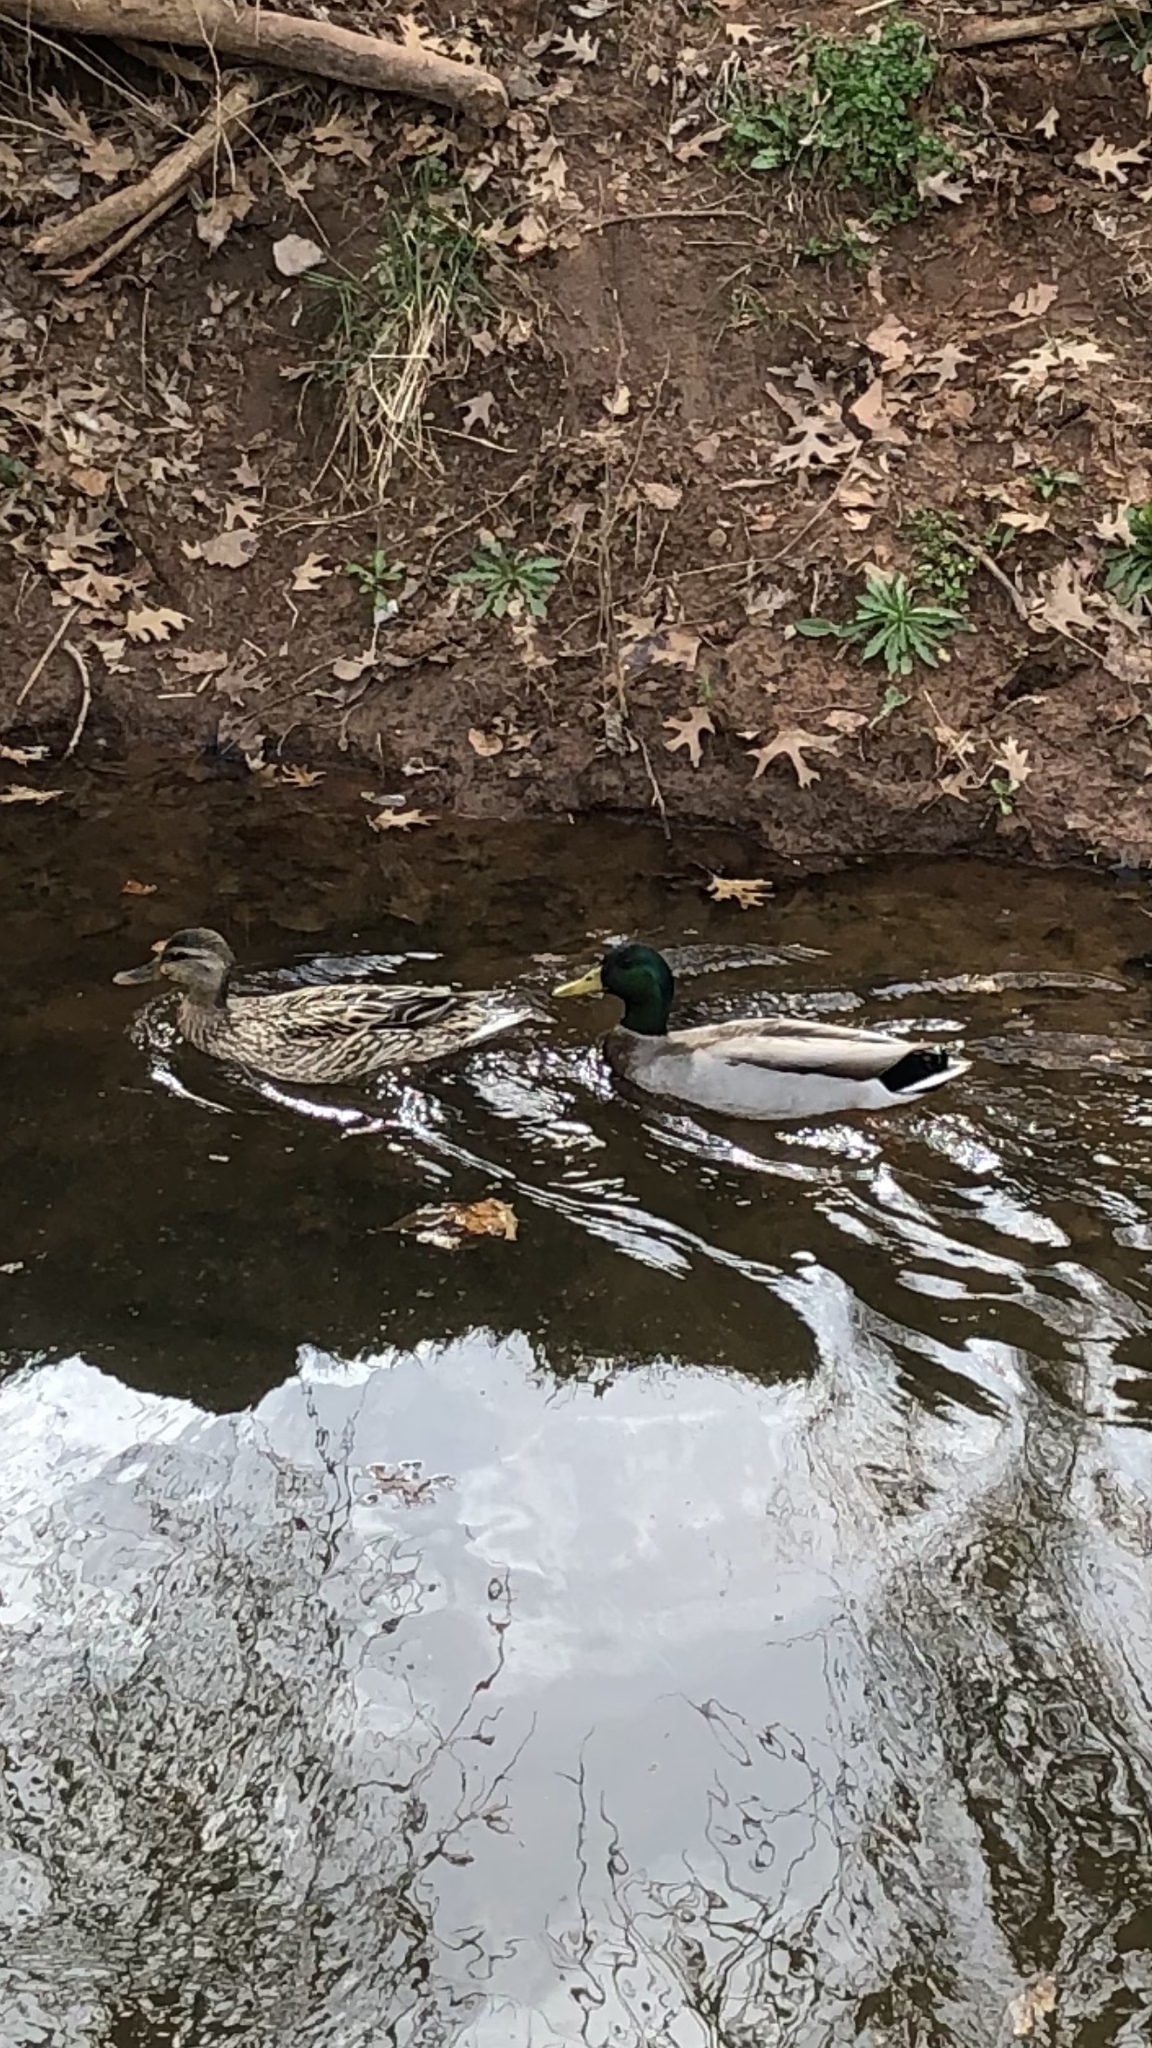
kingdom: Animalia
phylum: Chordata
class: Aves
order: Anseriformes
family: Anatidae
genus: Anas
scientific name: Anas platyrhynchos
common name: Mallard
